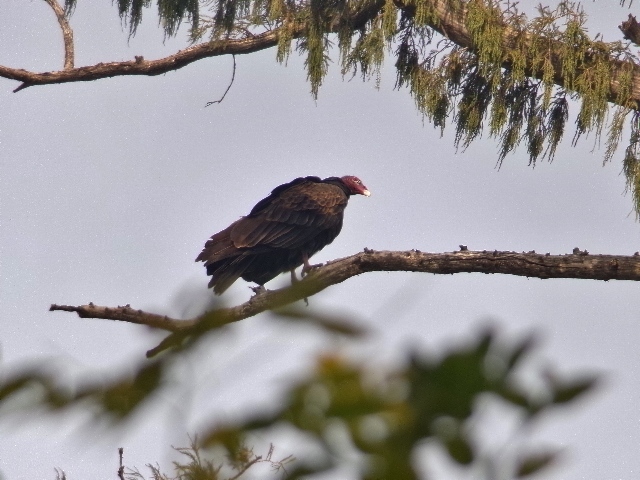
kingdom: Animalia
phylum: Chordata
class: Aves
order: Accipitriformes
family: Cathartidae
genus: Cathartes
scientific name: Cathartes aura
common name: Turkey vulture
